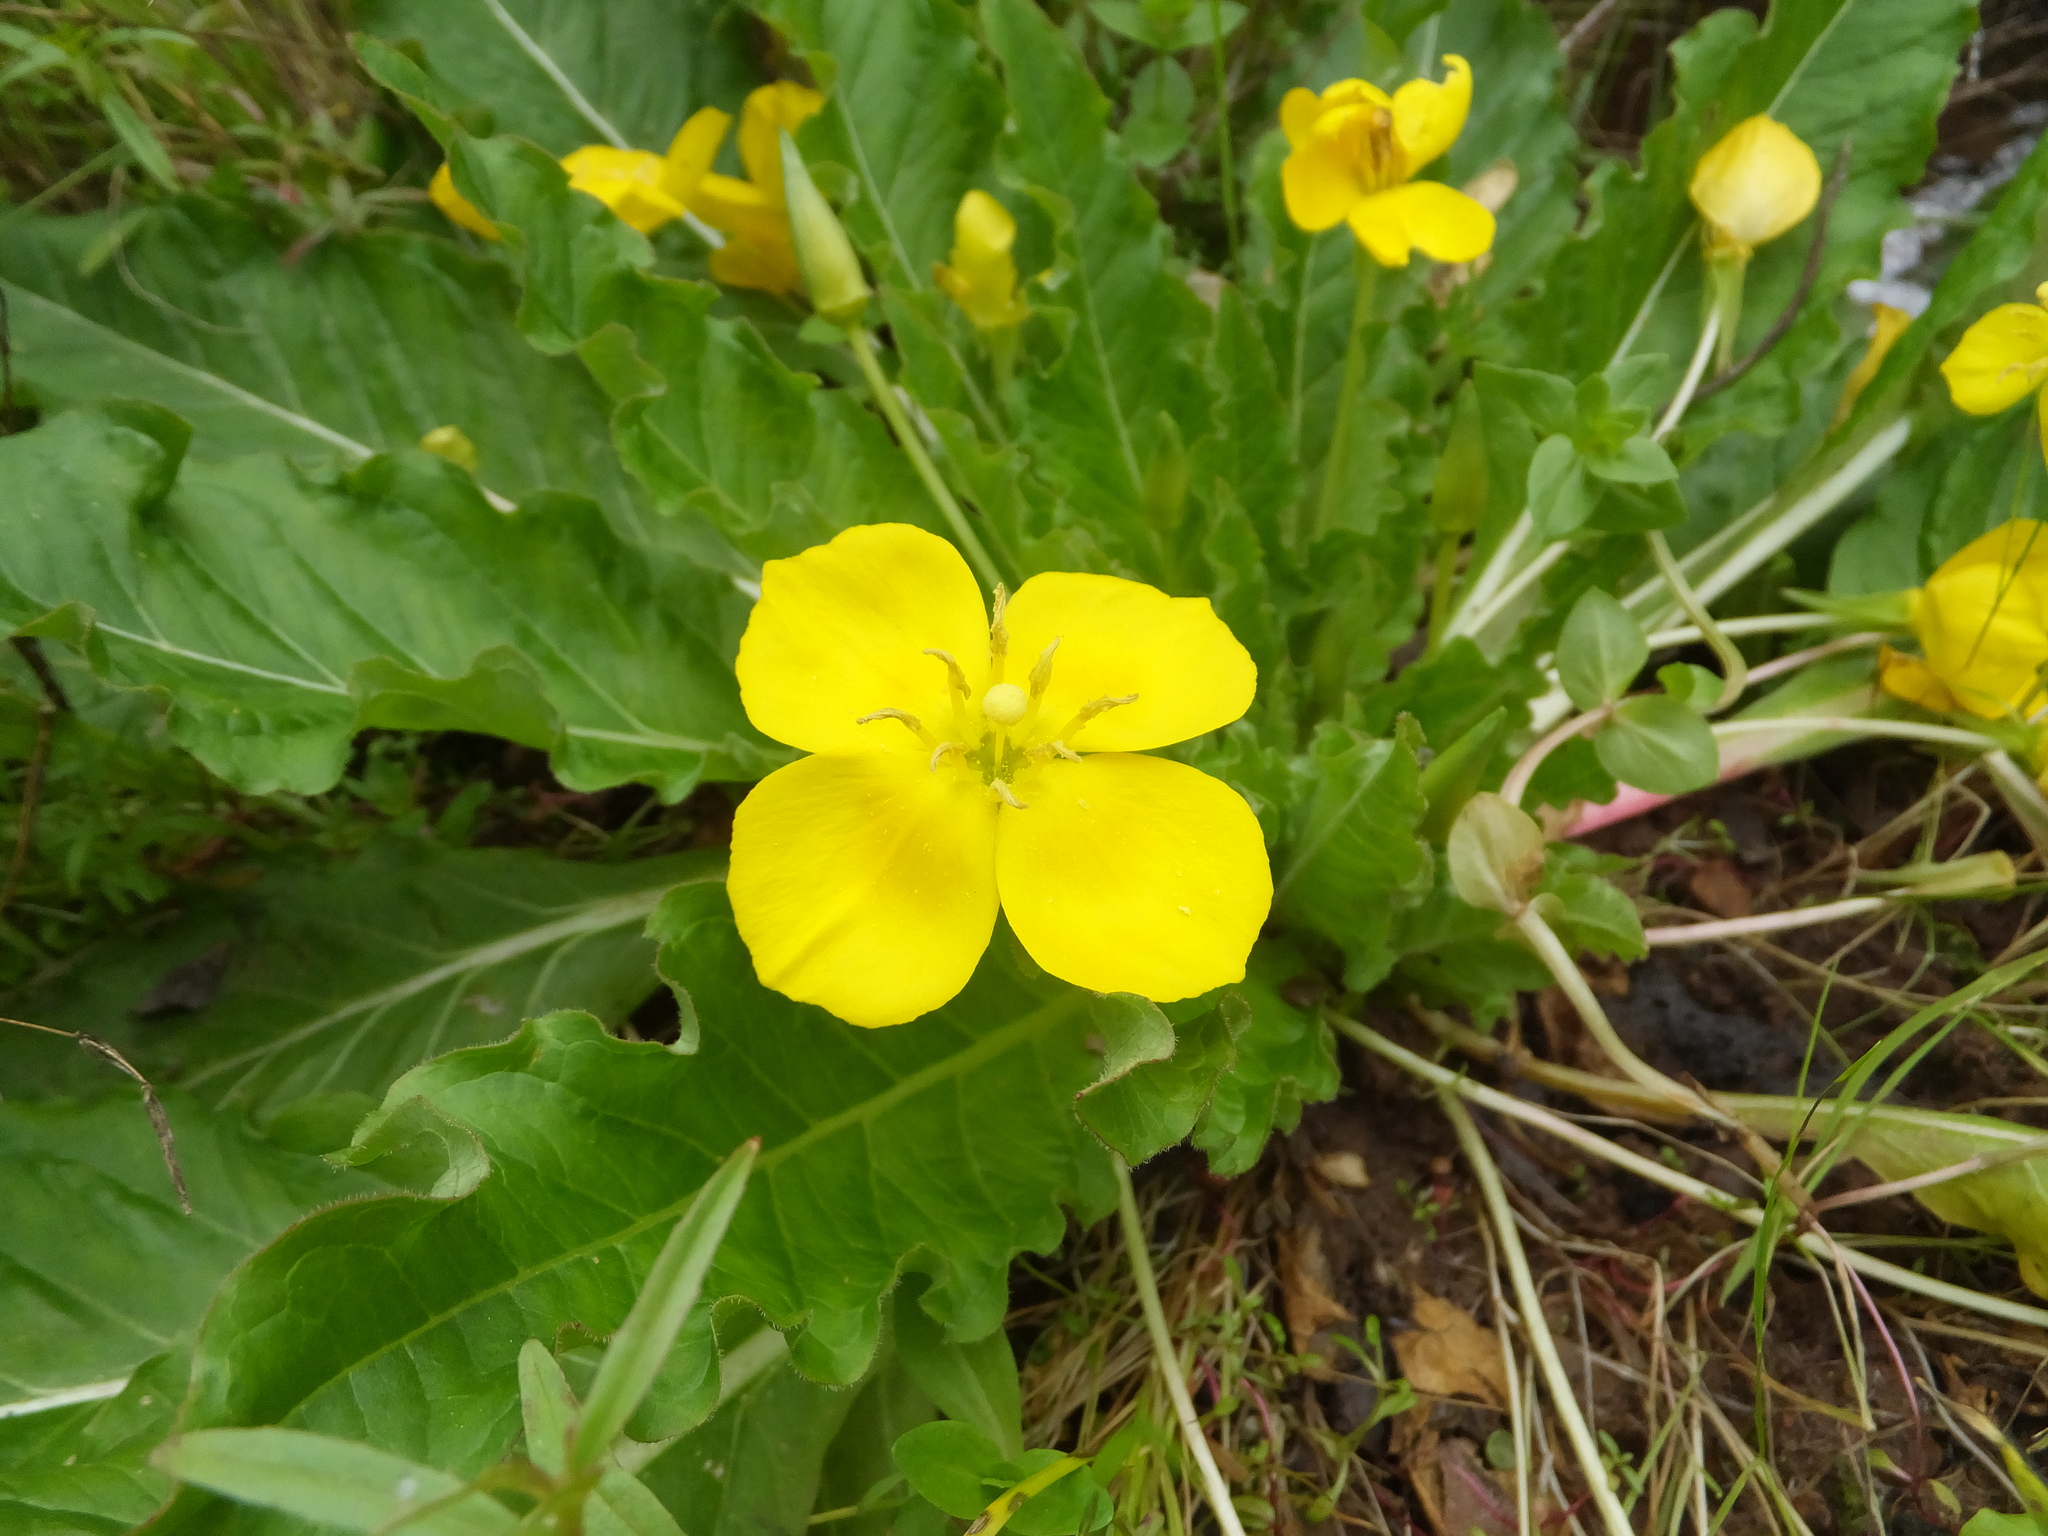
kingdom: Plantae
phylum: Tracheophyta
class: Magnoliopsida
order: Myrtales
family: Onagraceae
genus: Taraxia
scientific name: Taraxia ovata
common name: Goldeneggs
